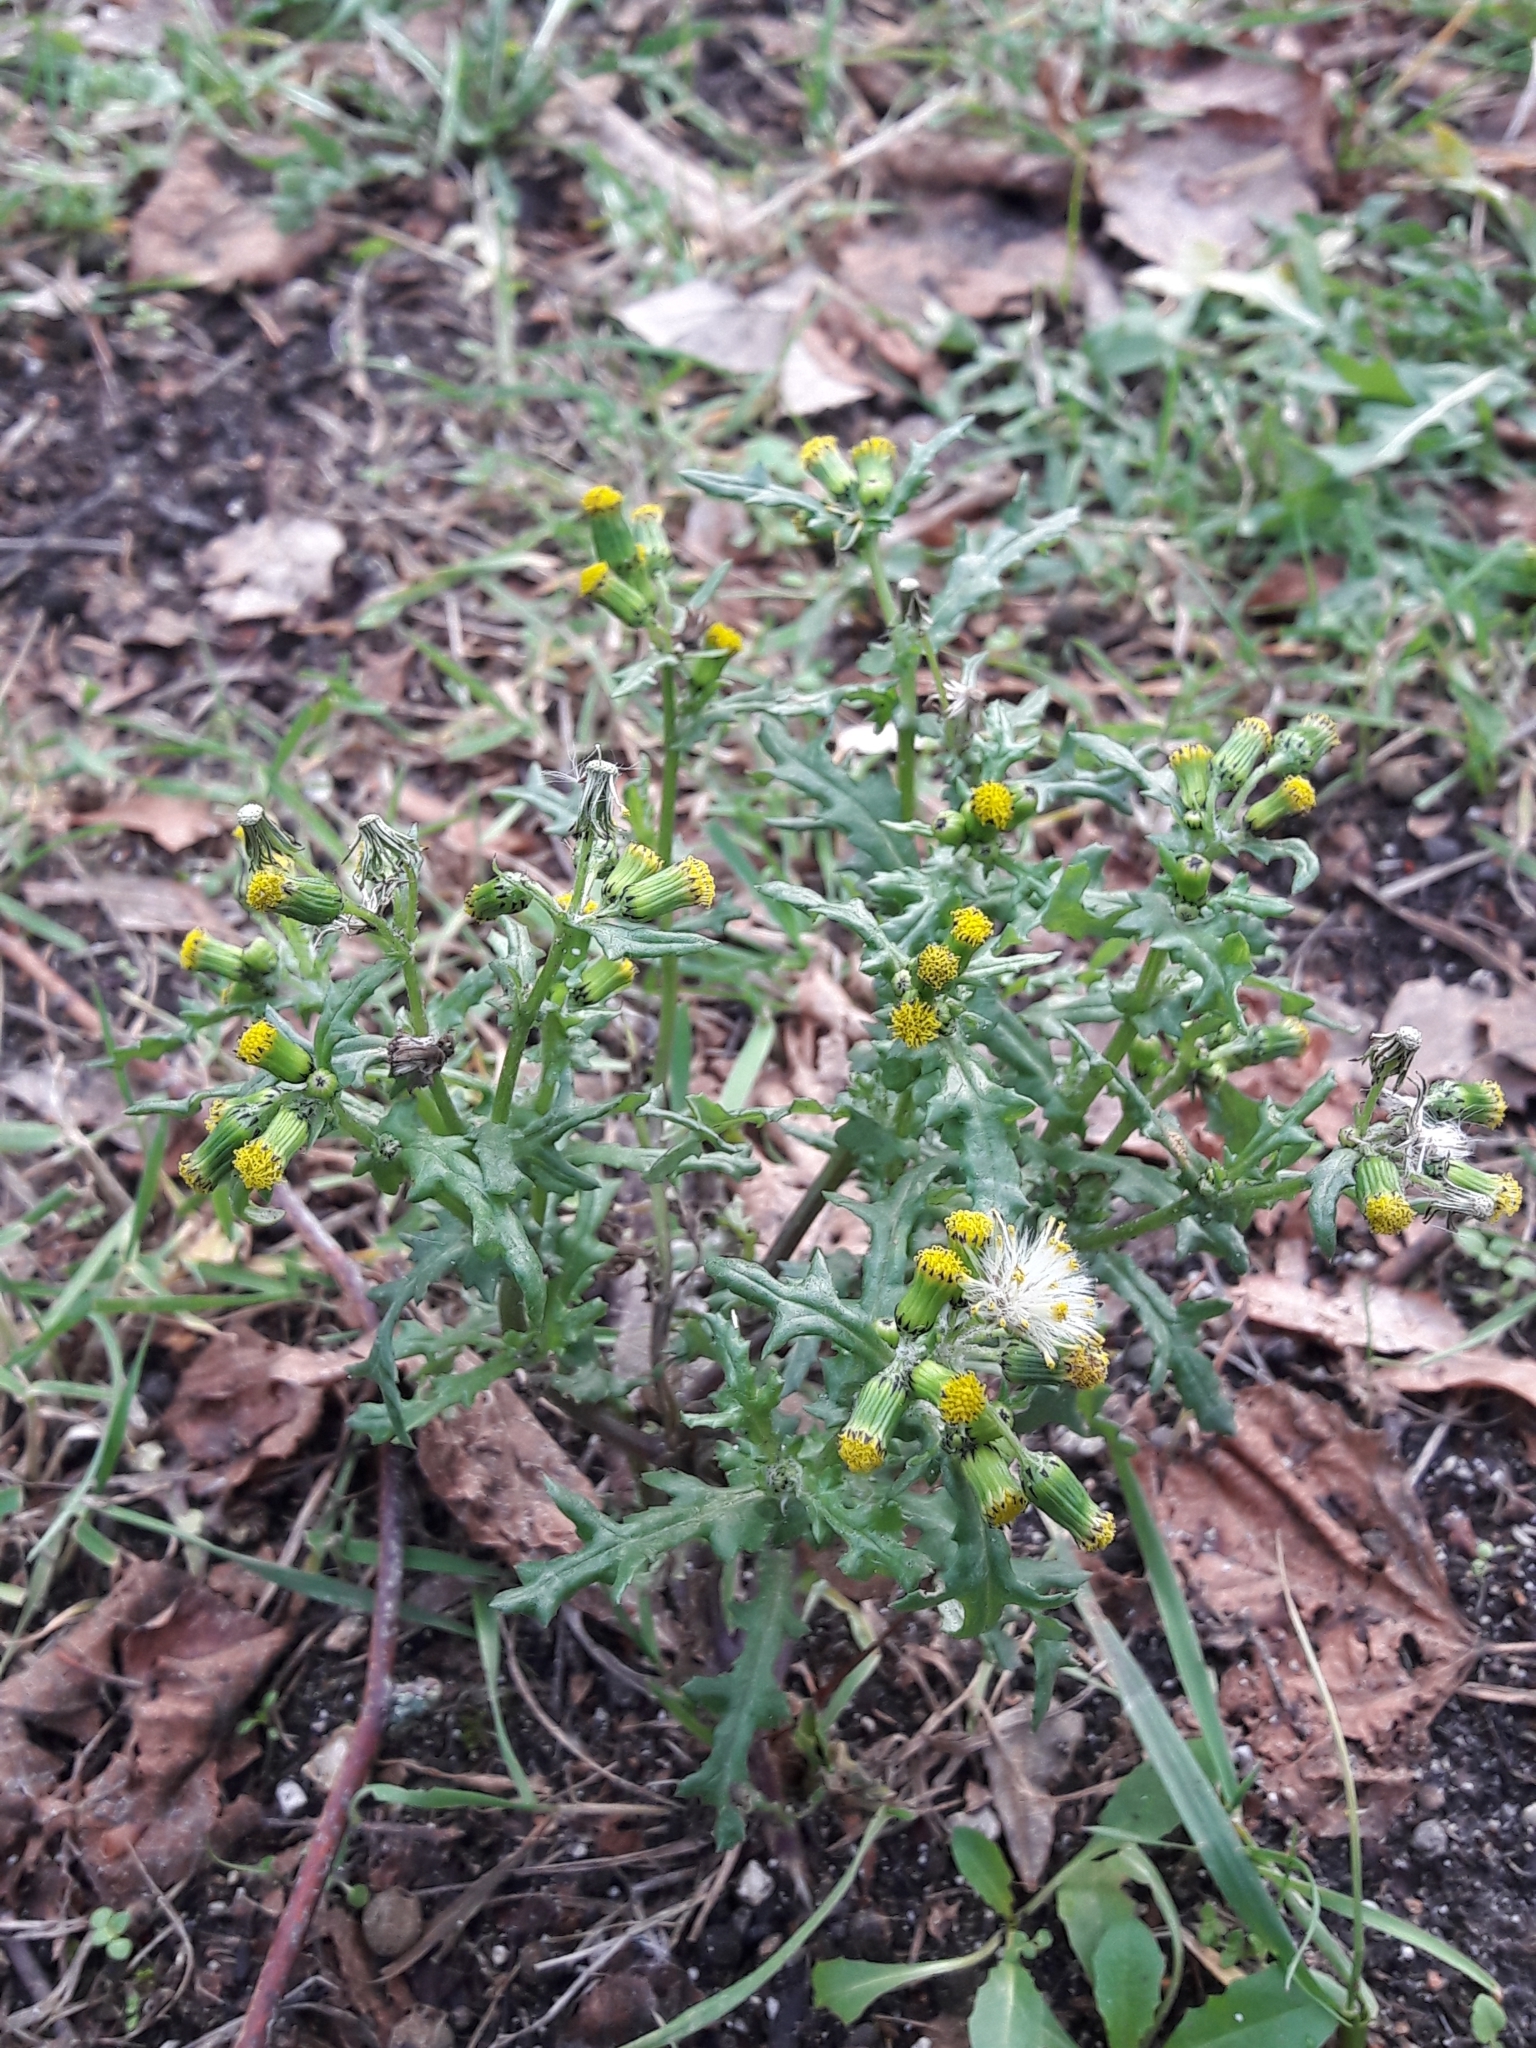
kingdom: Plantae
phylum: Tracheophyta
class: Magnoliopsida
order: Asterales
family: Asteraceae
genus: Senecio
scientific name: Senecio vulgaris
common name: Old-man-in-the-spring
